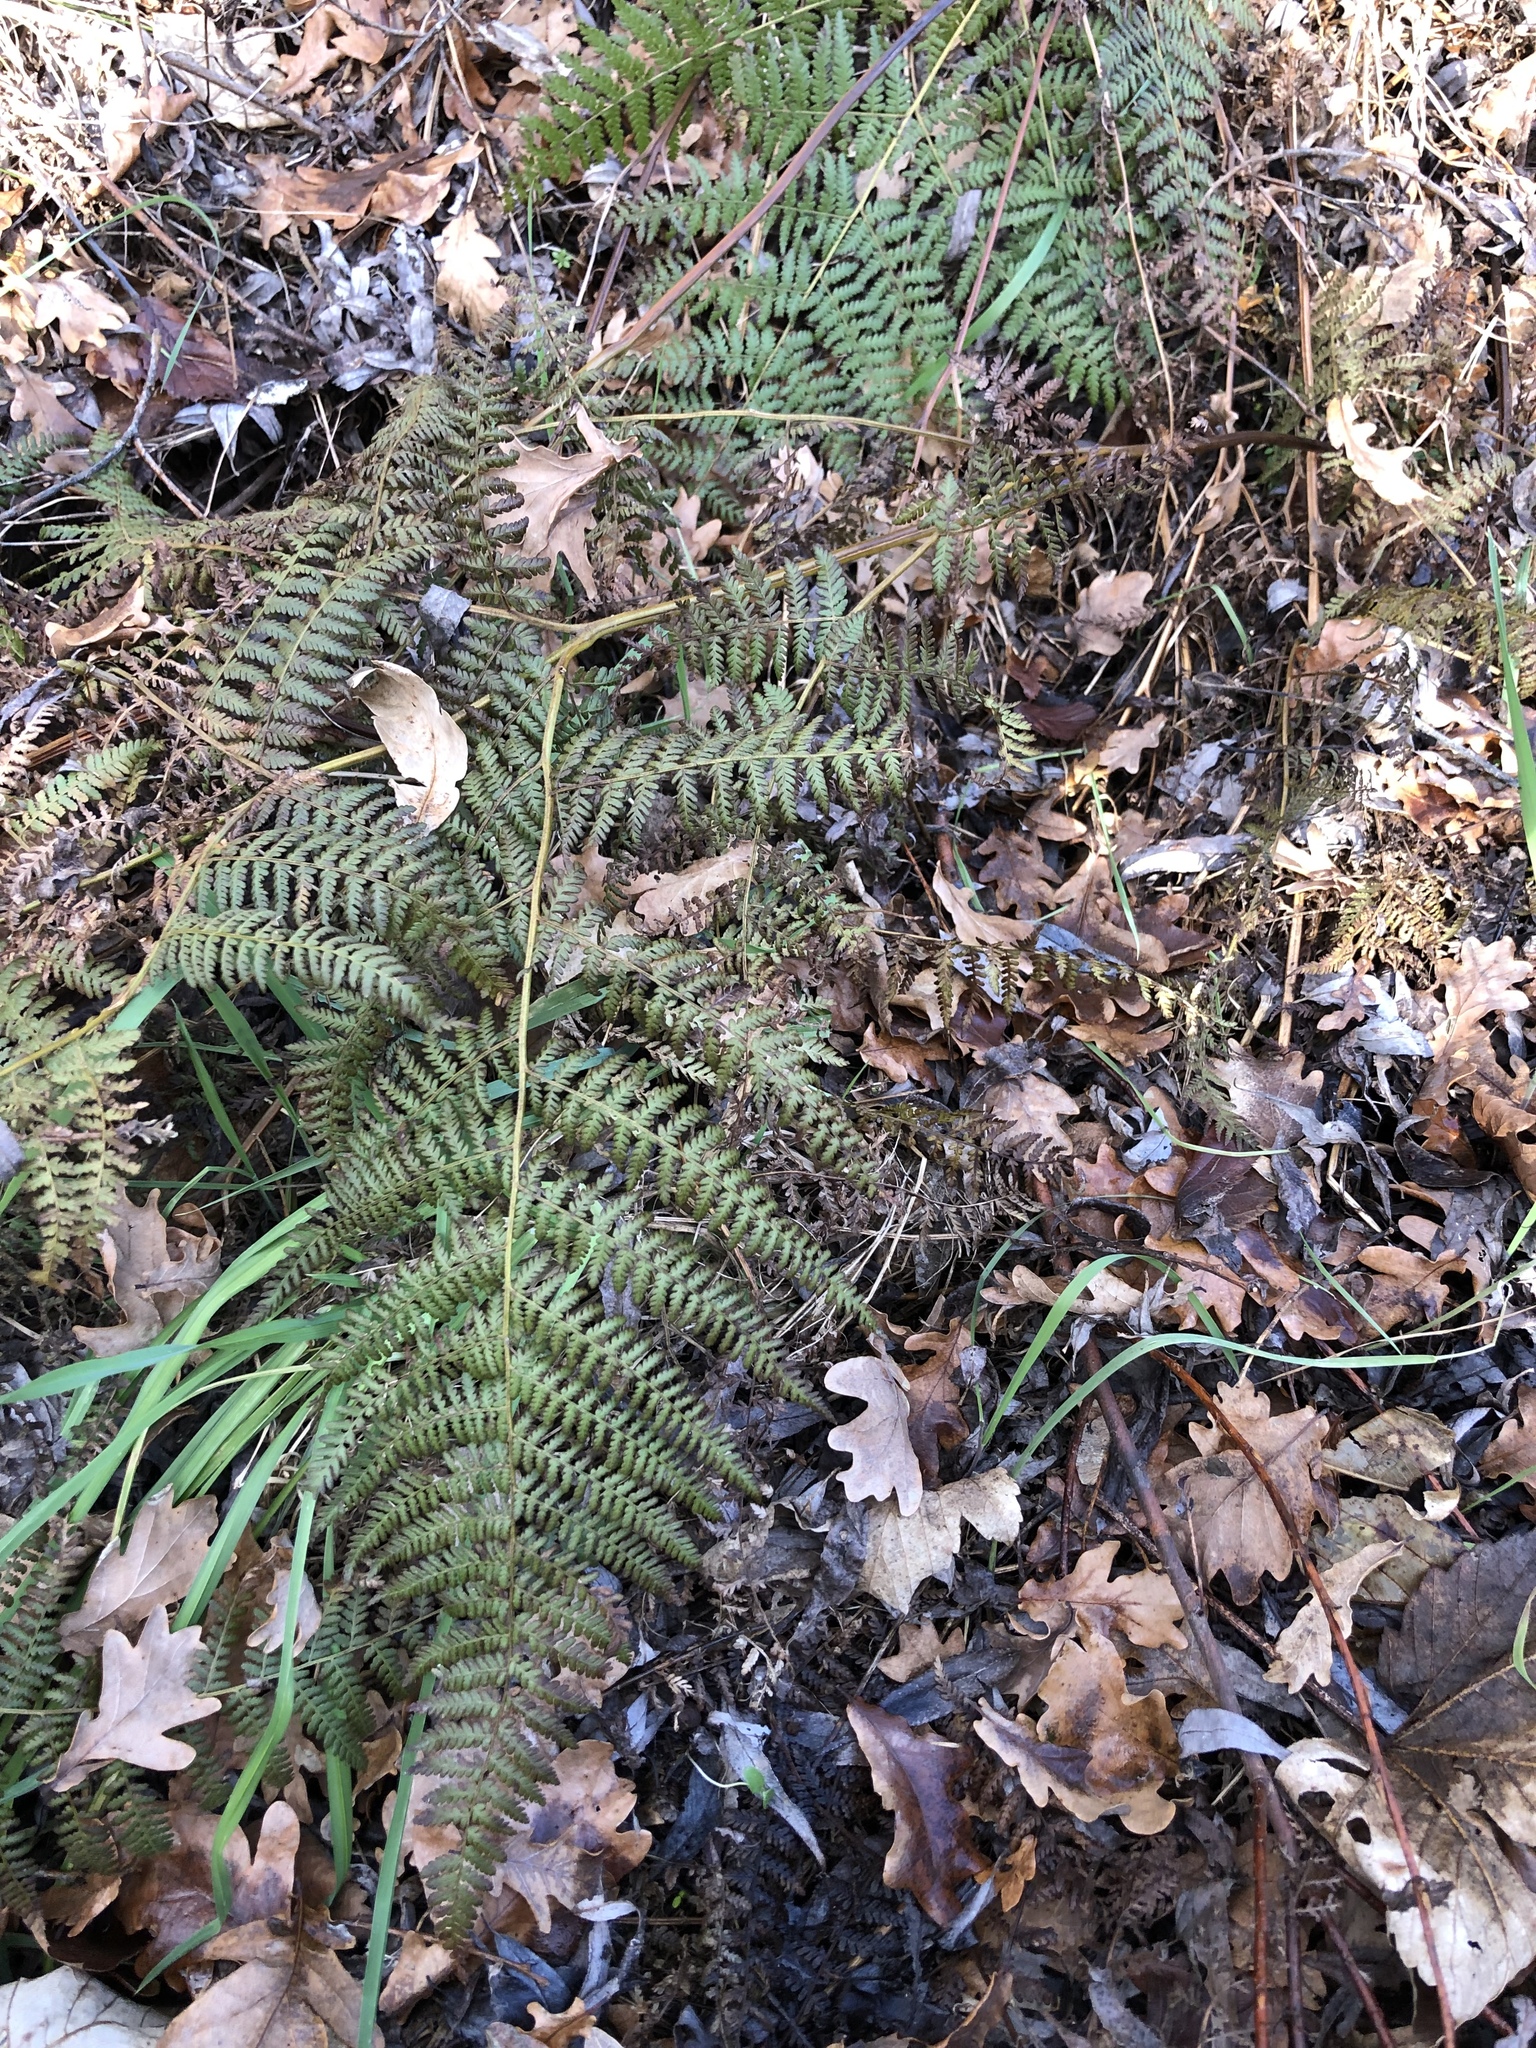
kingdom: Plantae
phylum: Tracheophyta
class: Polypodiopsida
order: Polypodiales
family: Dennstaedtiaceae
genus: Hypolepis
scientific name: Hypolepis ambigua
